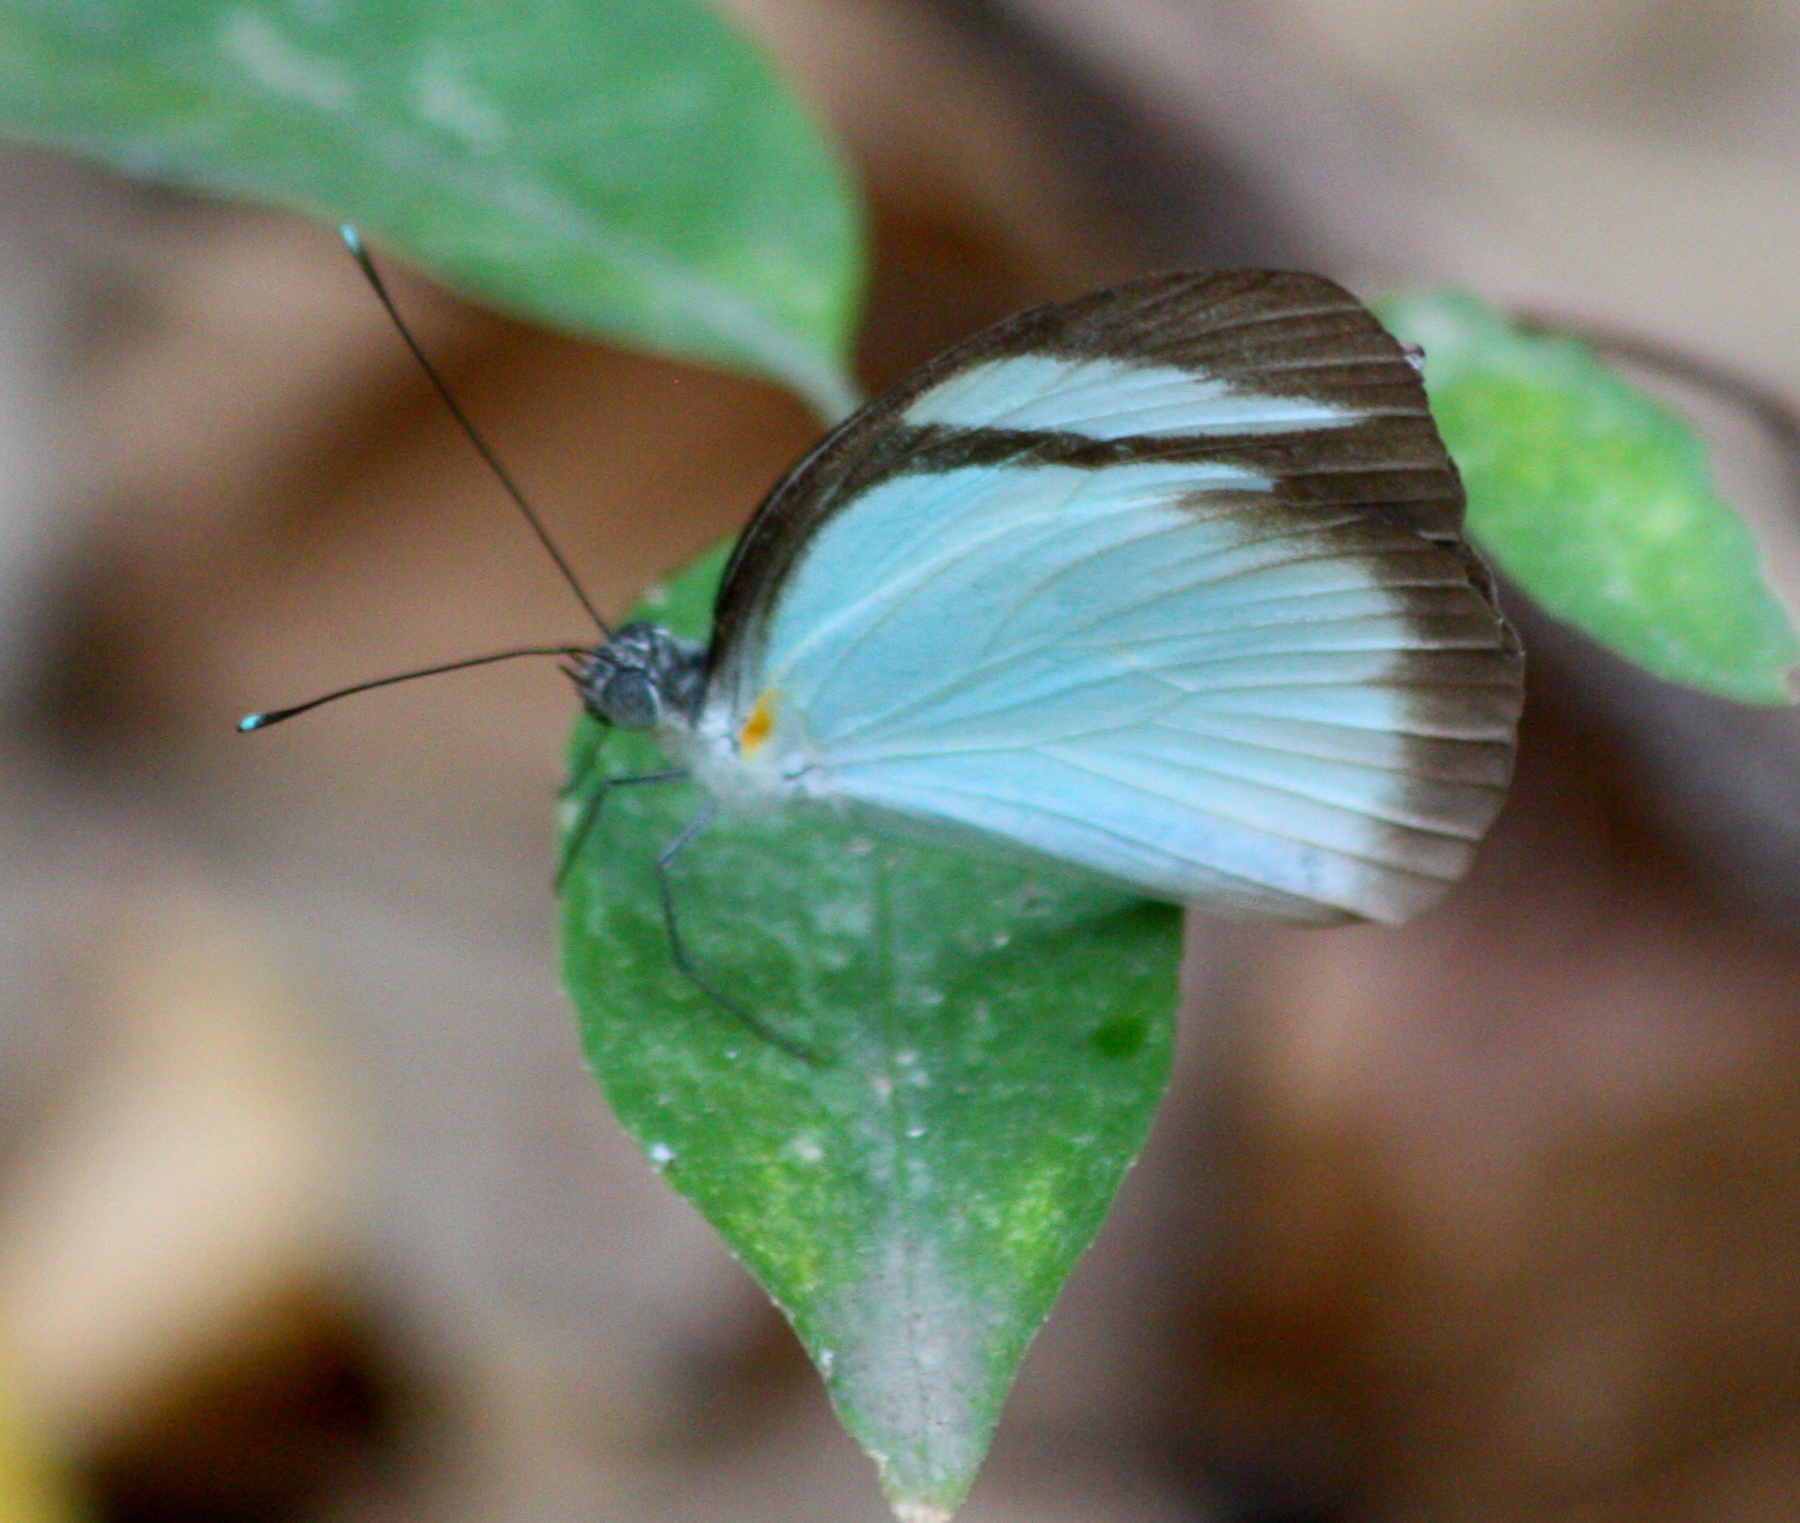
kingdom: Animalia
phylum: Arthropoda
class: Insecta
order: Lepidoptera
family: Pieridae
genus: Itaballia
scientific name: Itaballia demophile
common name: Cross-barred white
